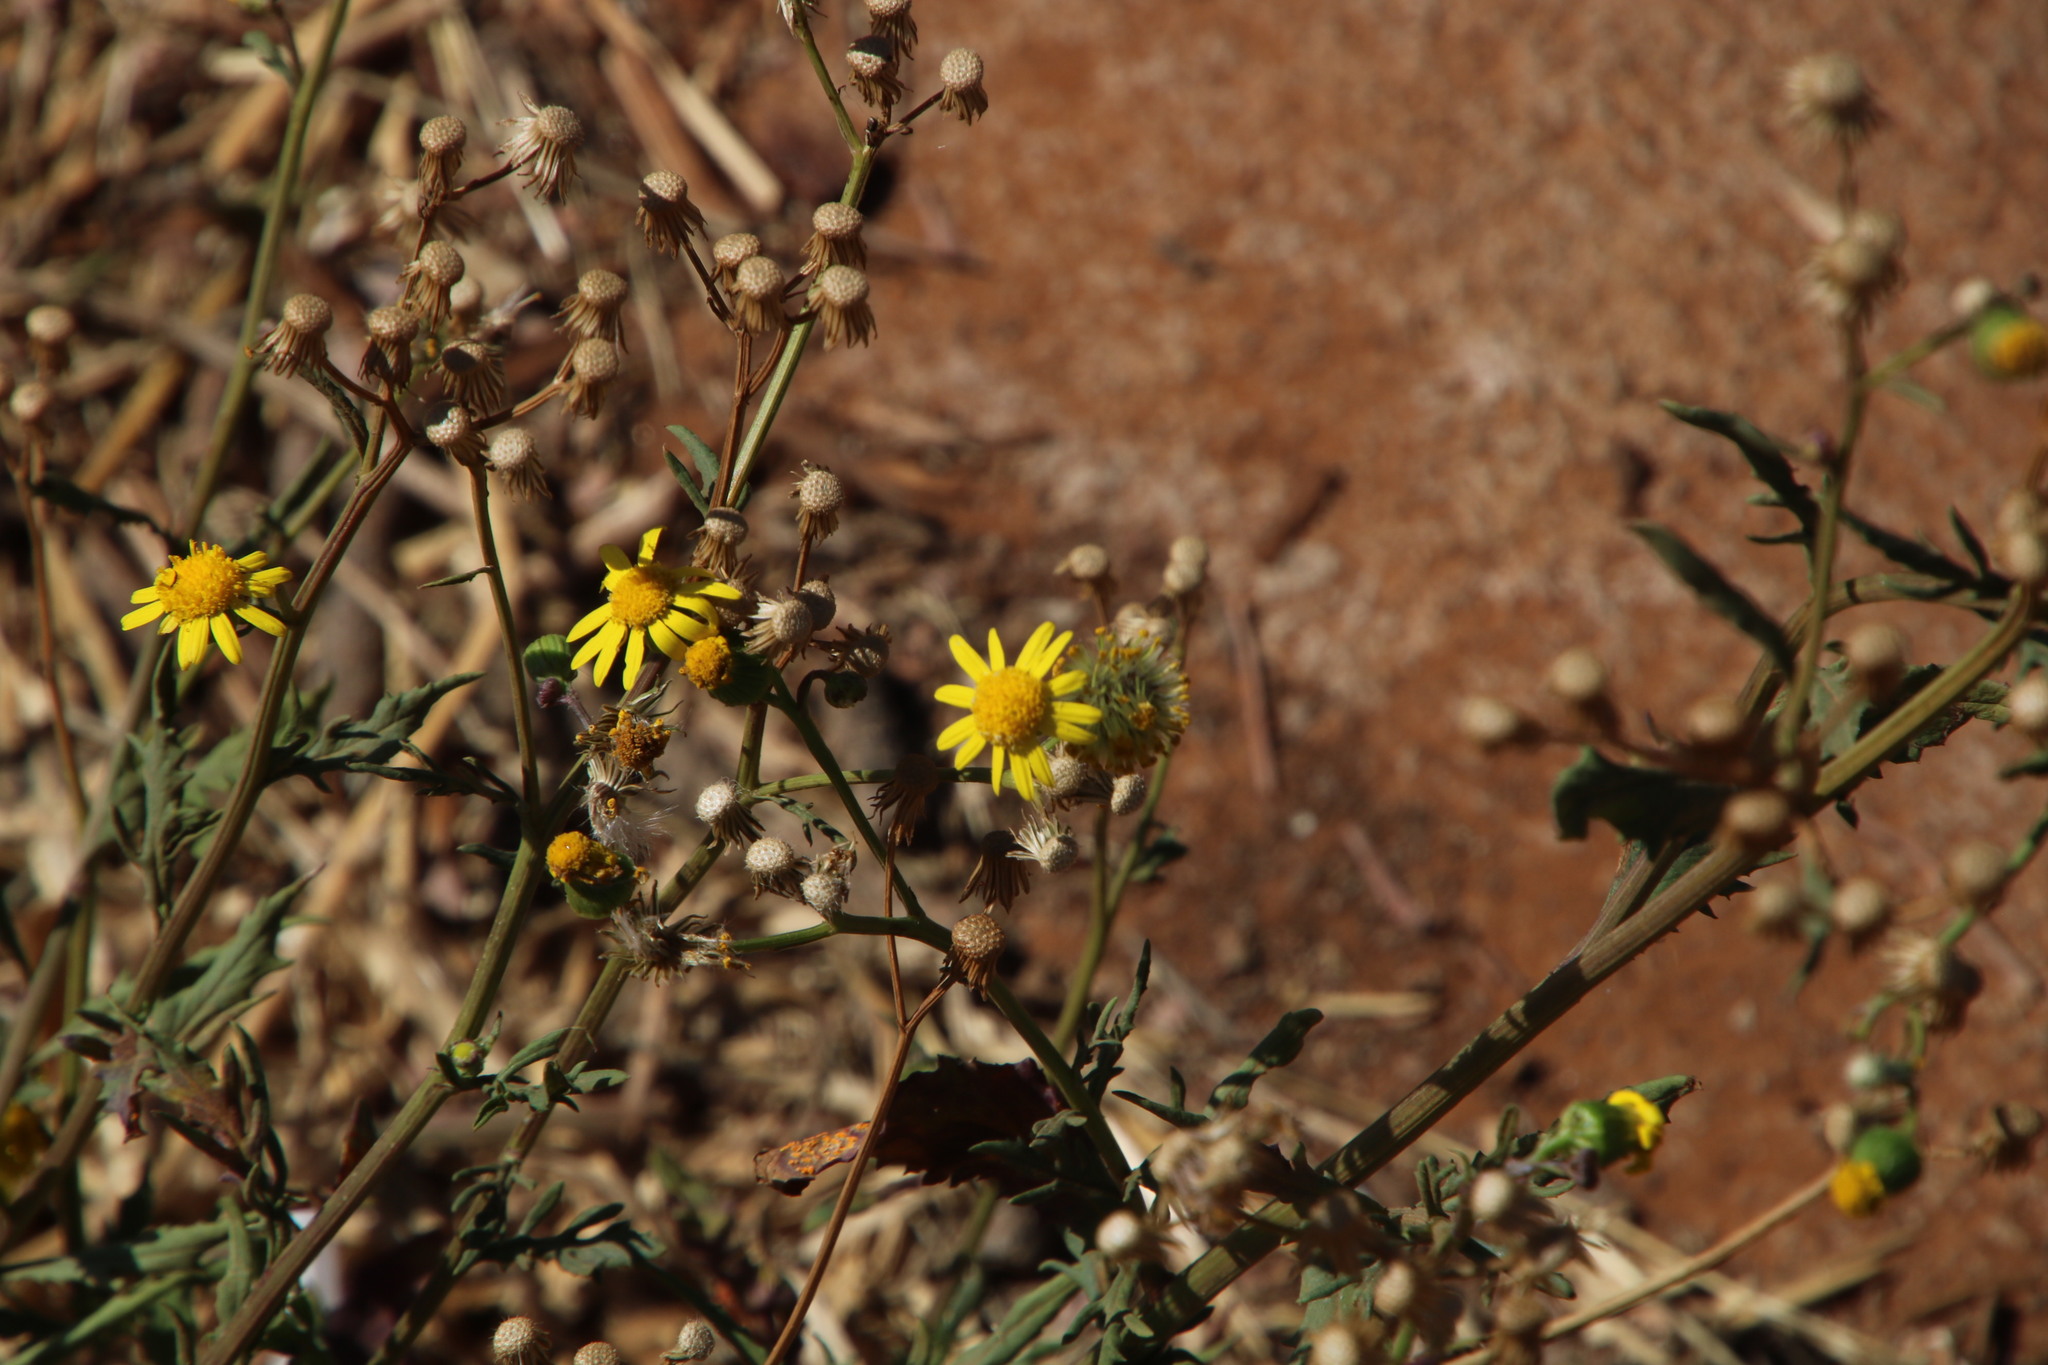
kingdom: Plantae
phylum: Tracheophyta
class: Magnoliopsida
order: Asterales
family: Asteraceae
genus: Anisopappus
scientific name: Anisopappus schinzii
